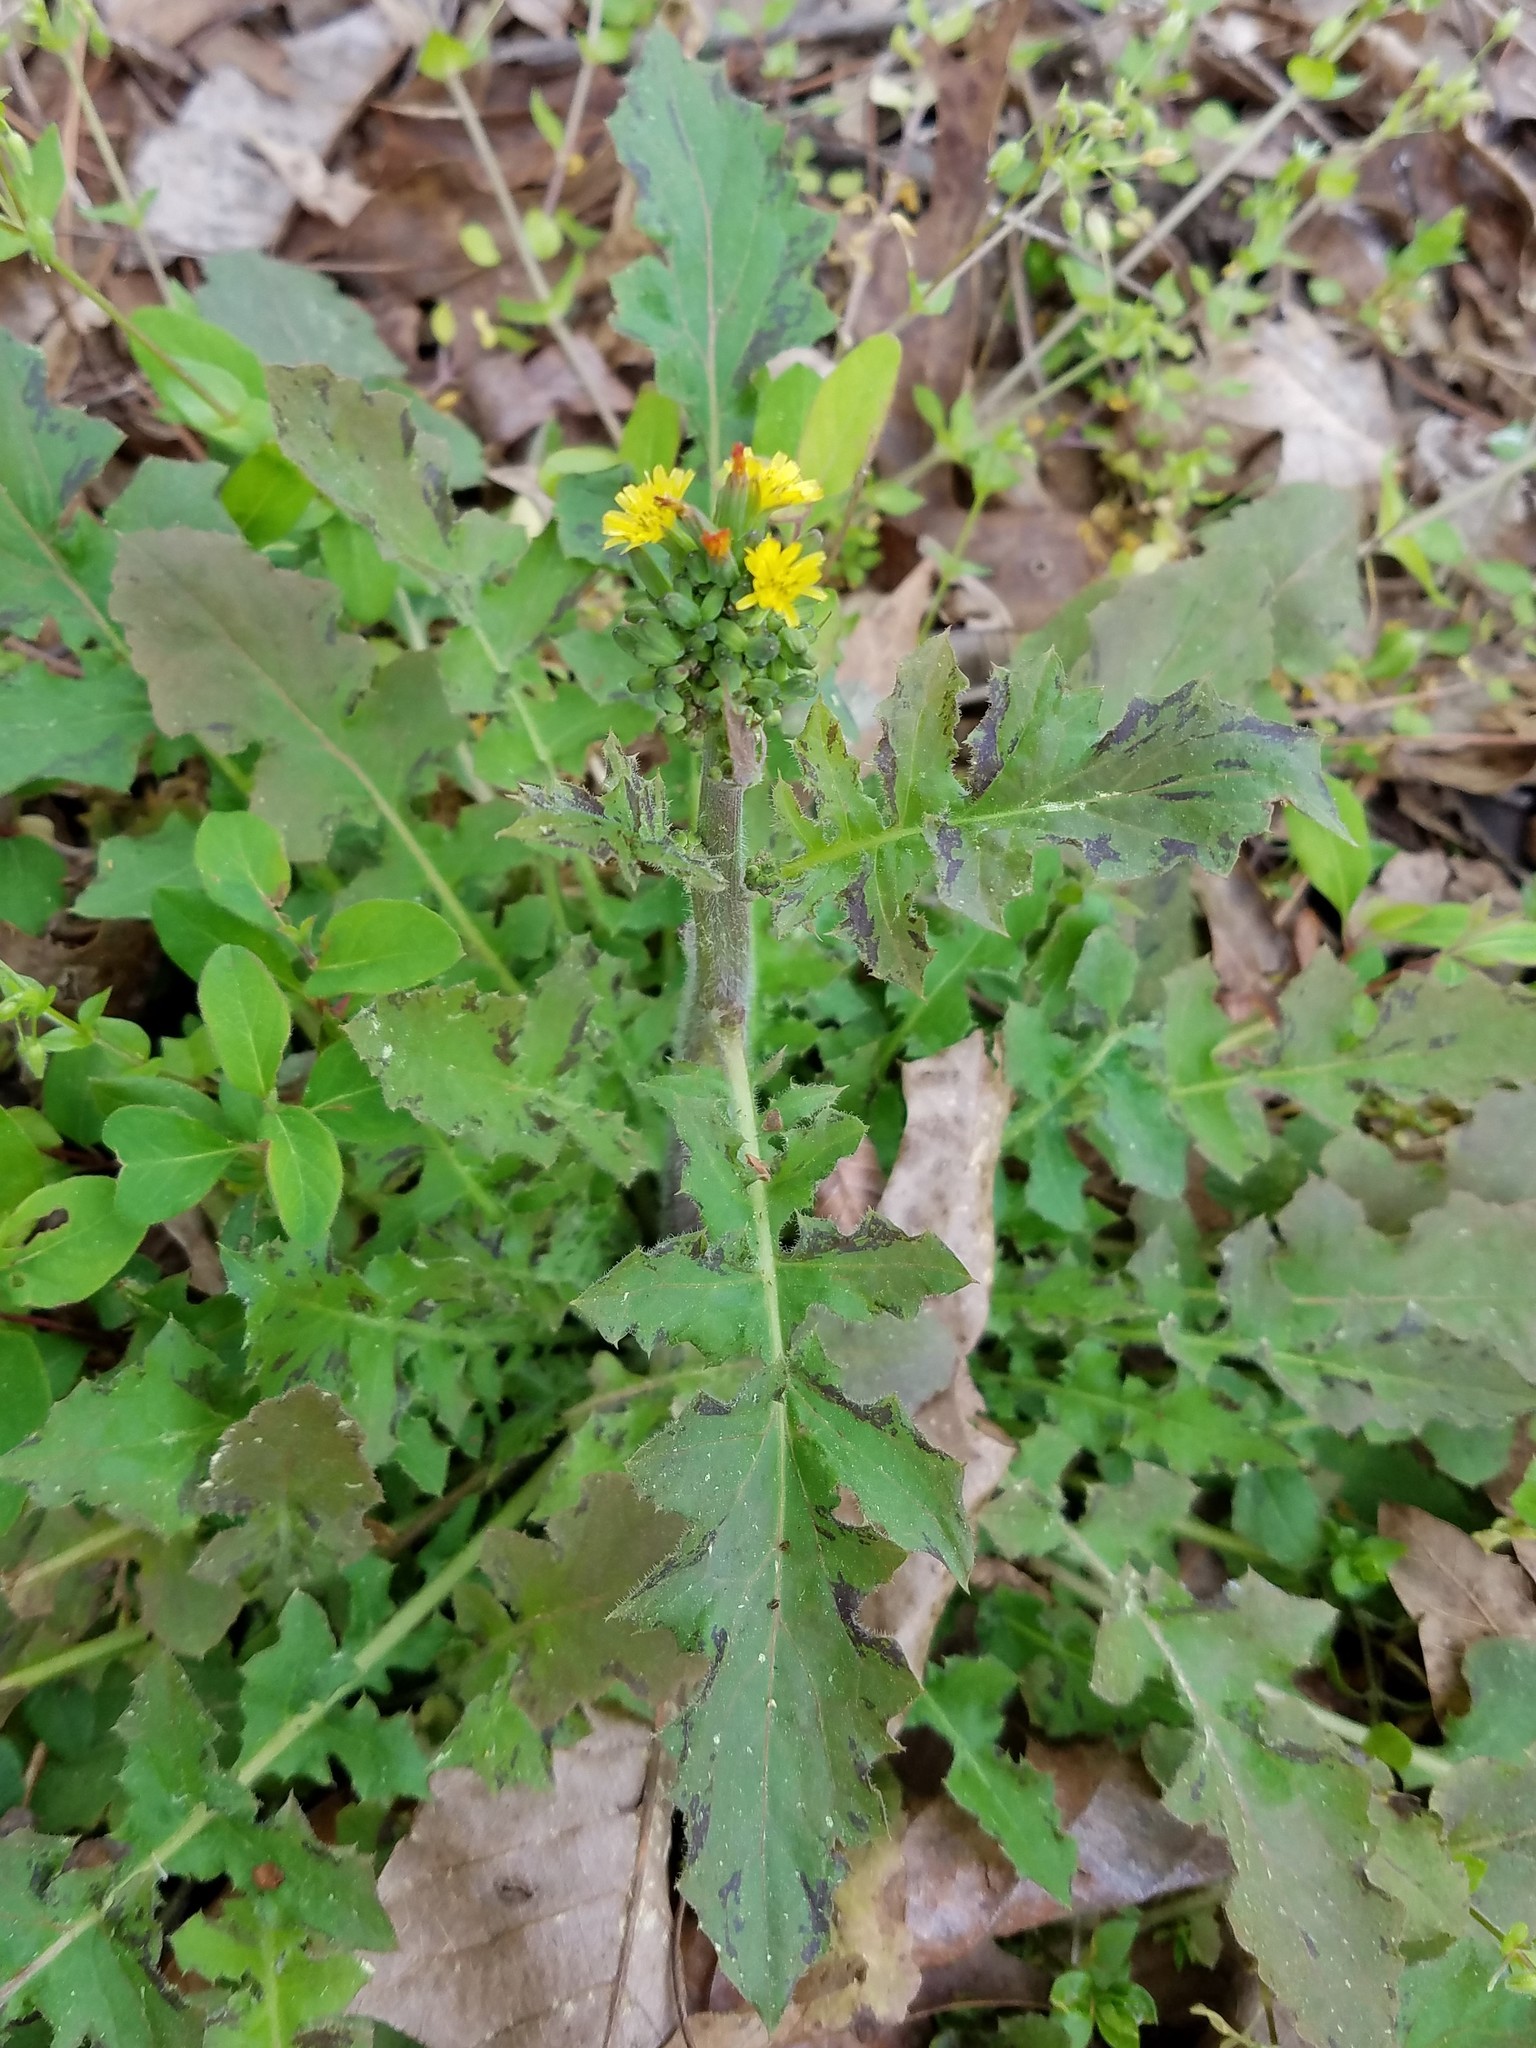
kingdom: Plantae
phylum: Tracheophyta
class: Magnoliopsida
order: Asterales
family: Asteraceae
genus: Youngia
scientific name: Youngia japonica
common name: Oriental false hawksbeard
